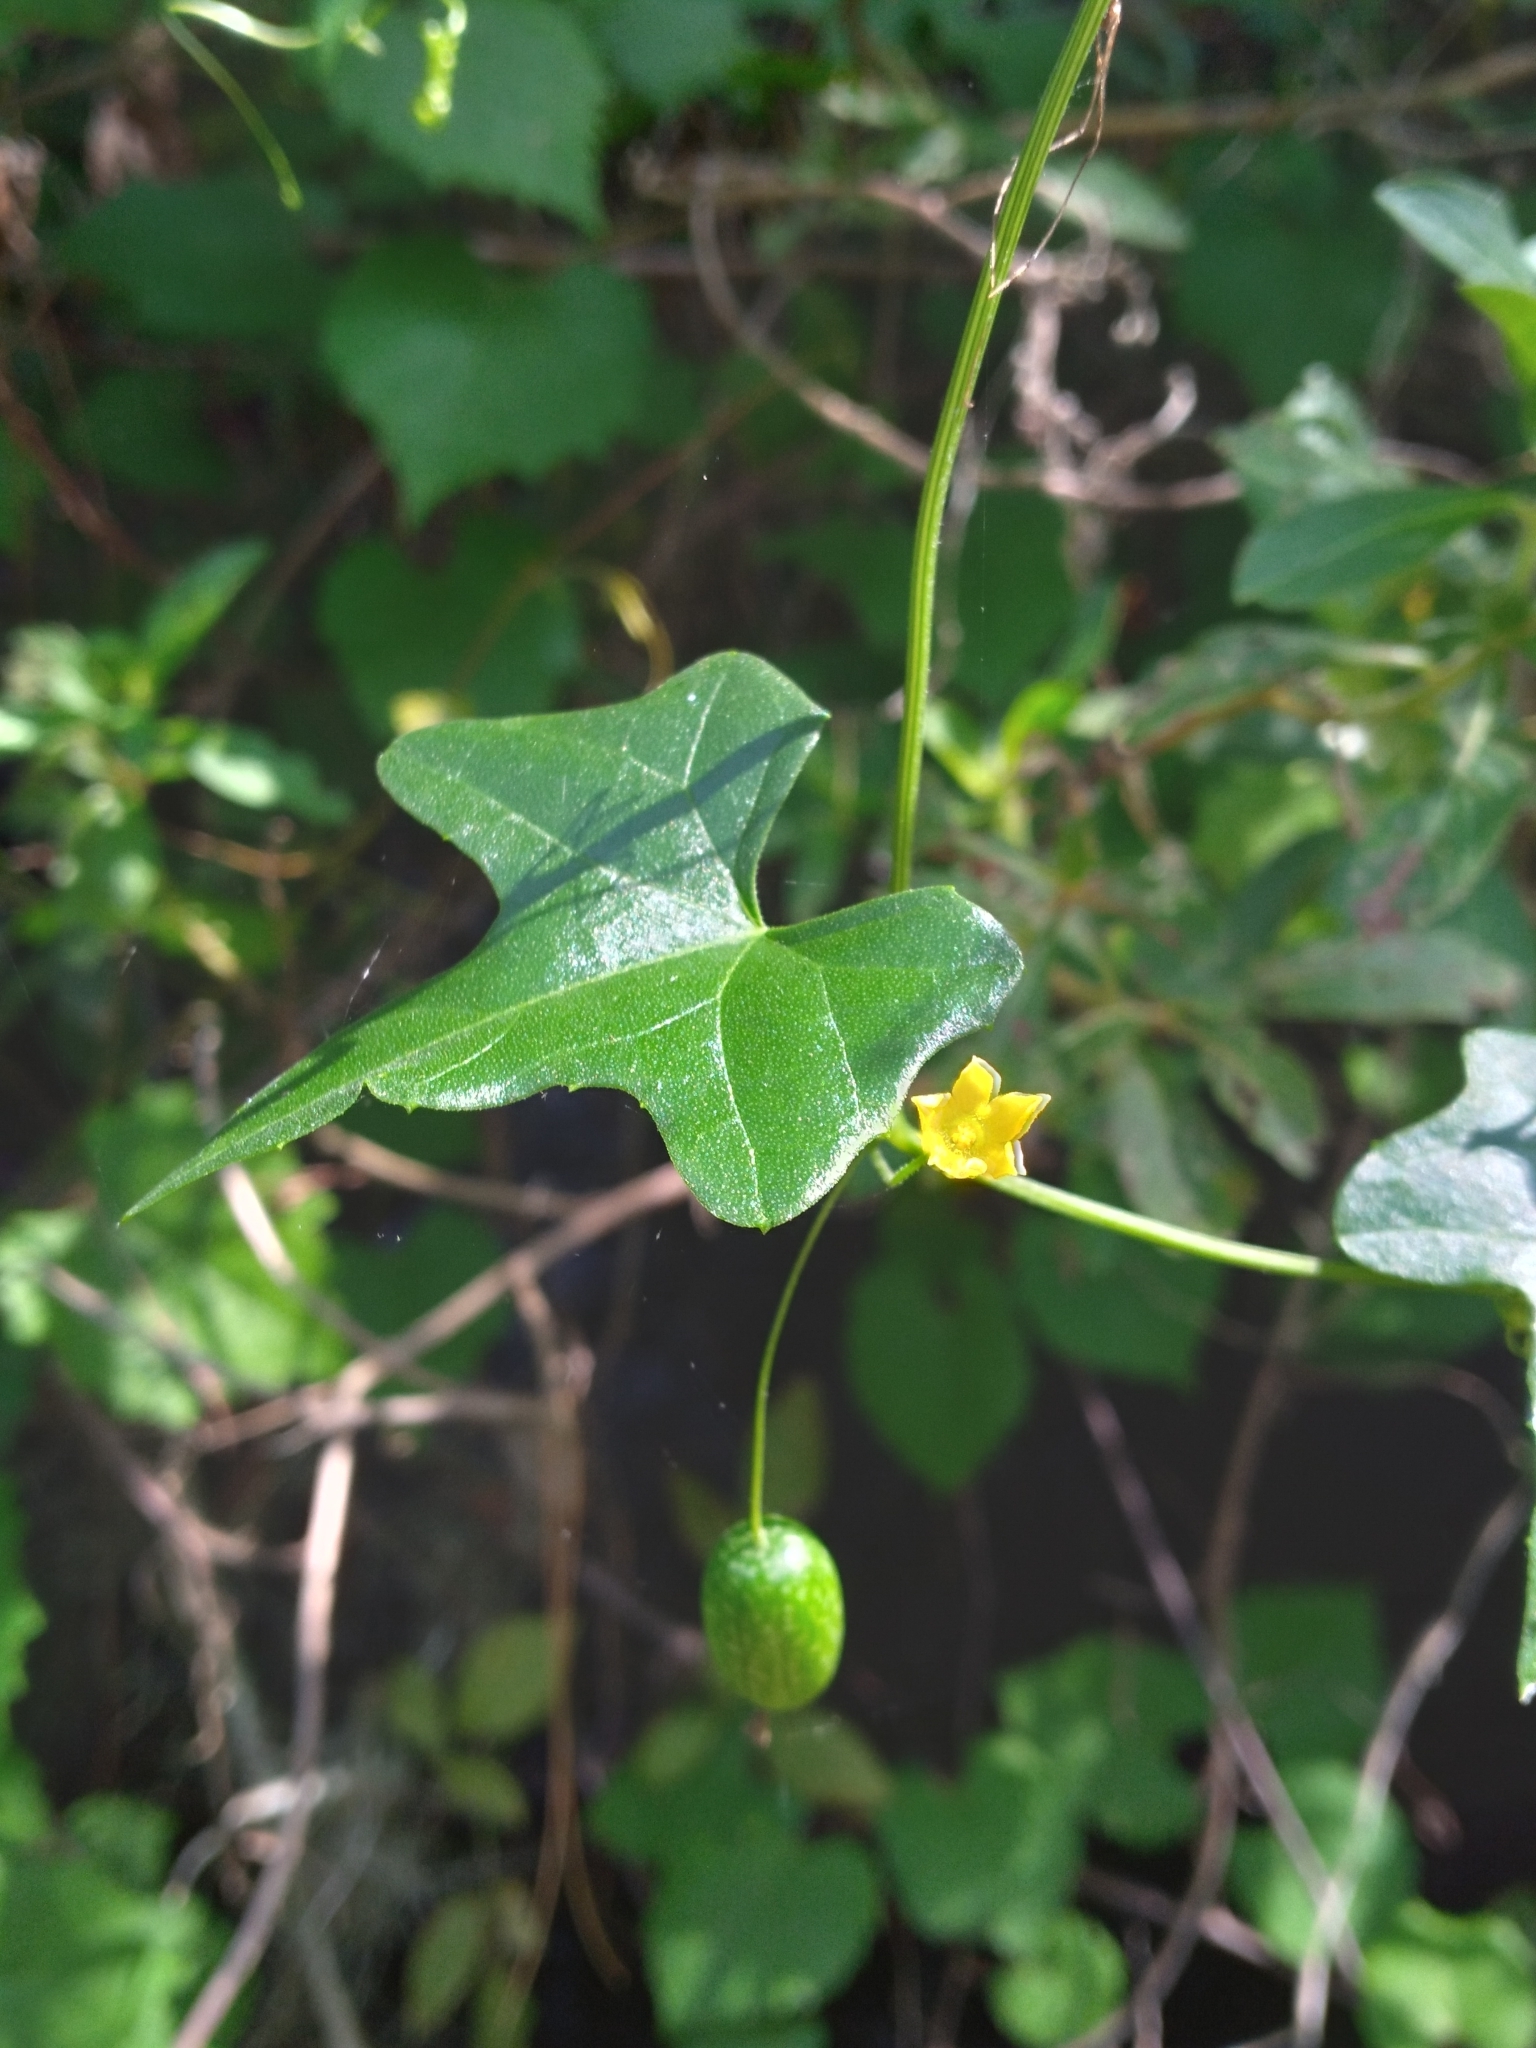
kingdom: Plantae
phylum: Tracheophyta
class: Magnoliopsida
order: Cucurbitales
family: Cucurbitaceae
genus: Melothria
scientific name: Melothria pendula
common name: Creeping-cucumber
